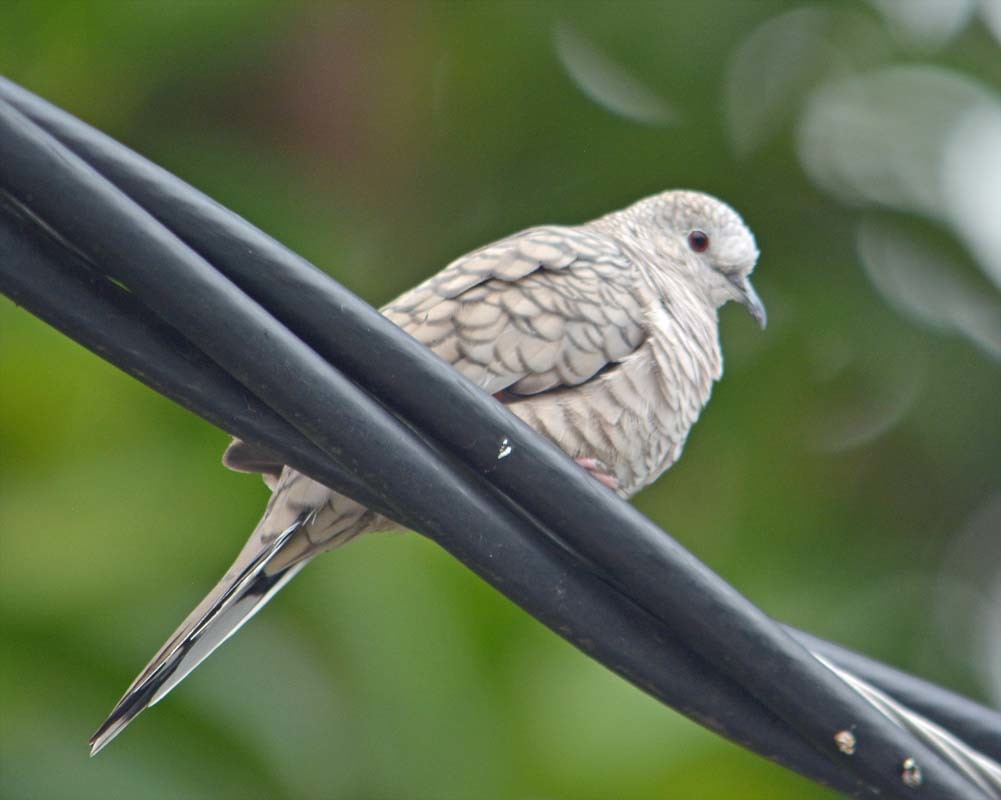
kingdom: Animalia
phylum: Chordata
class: Aves
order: Columbiformes
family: Columbidae
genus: Columbina
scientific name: Columbina inca
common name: Inca dove
